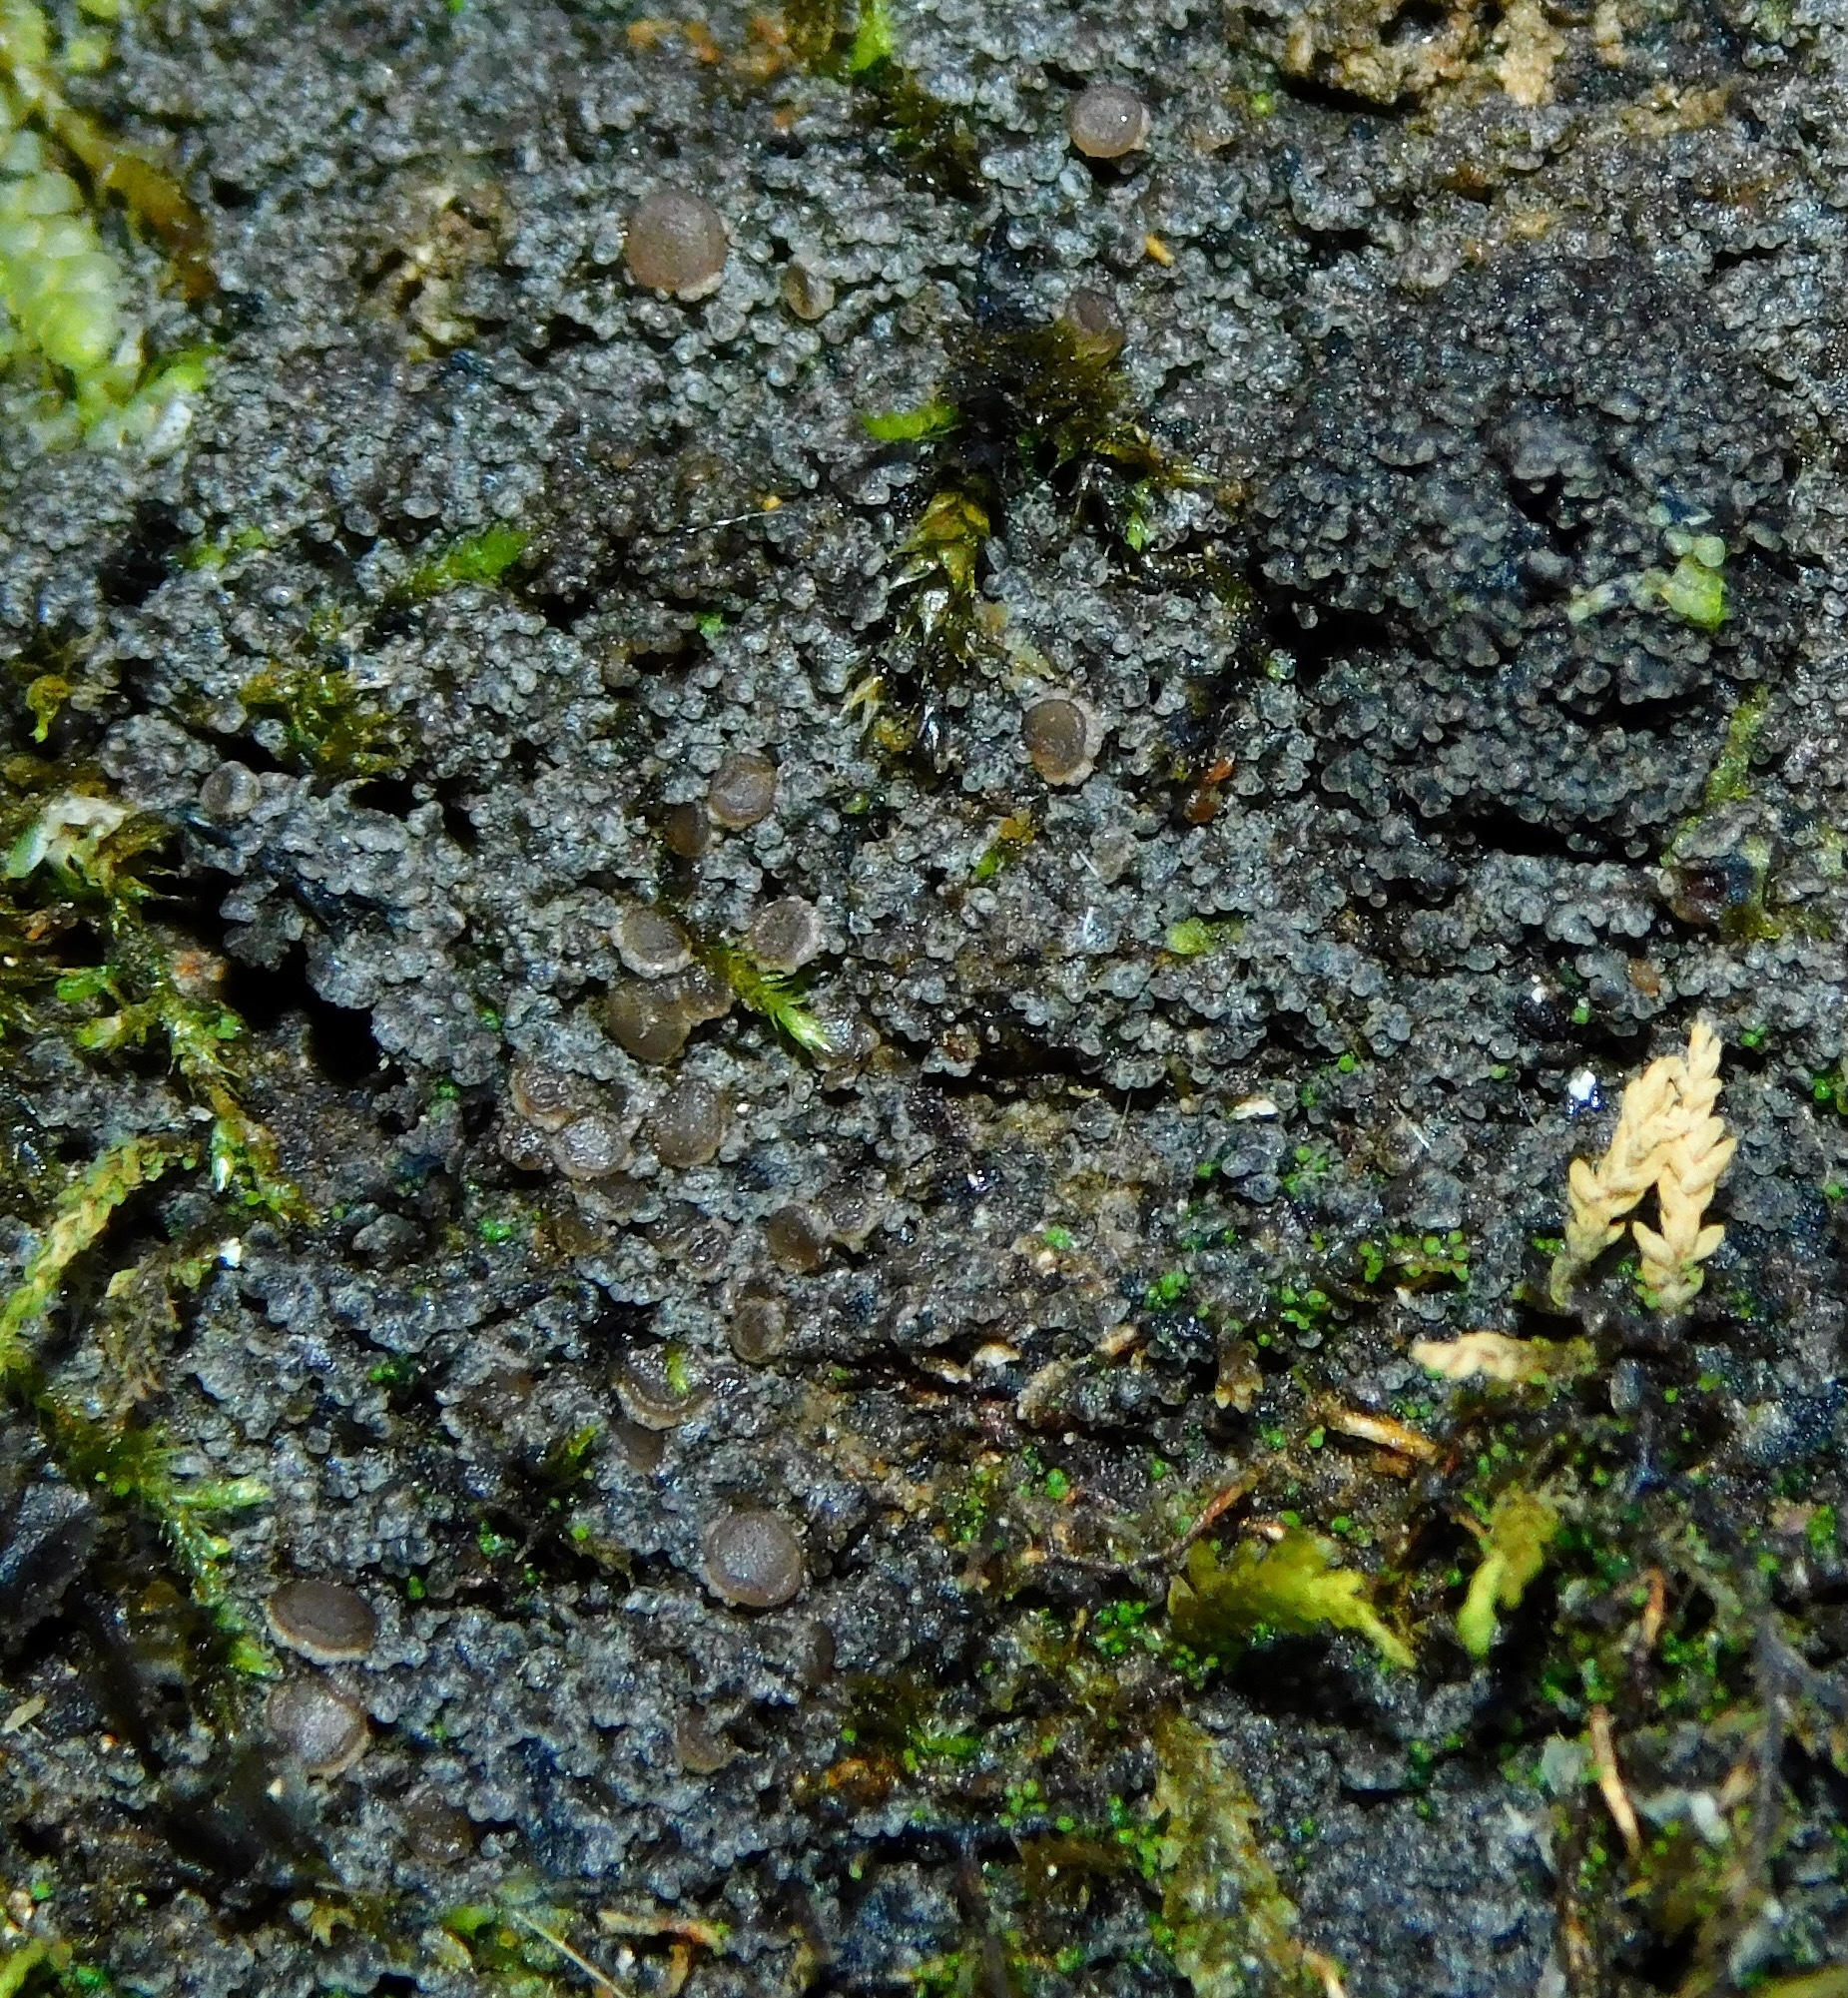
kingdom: Fungi
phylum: Ascomycota
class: Lecanoromycetes
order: Peltigerales
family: Vahliellaceae
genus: Vahliella
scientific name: Vahliella leucophaea
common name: Rock shingle lichen
